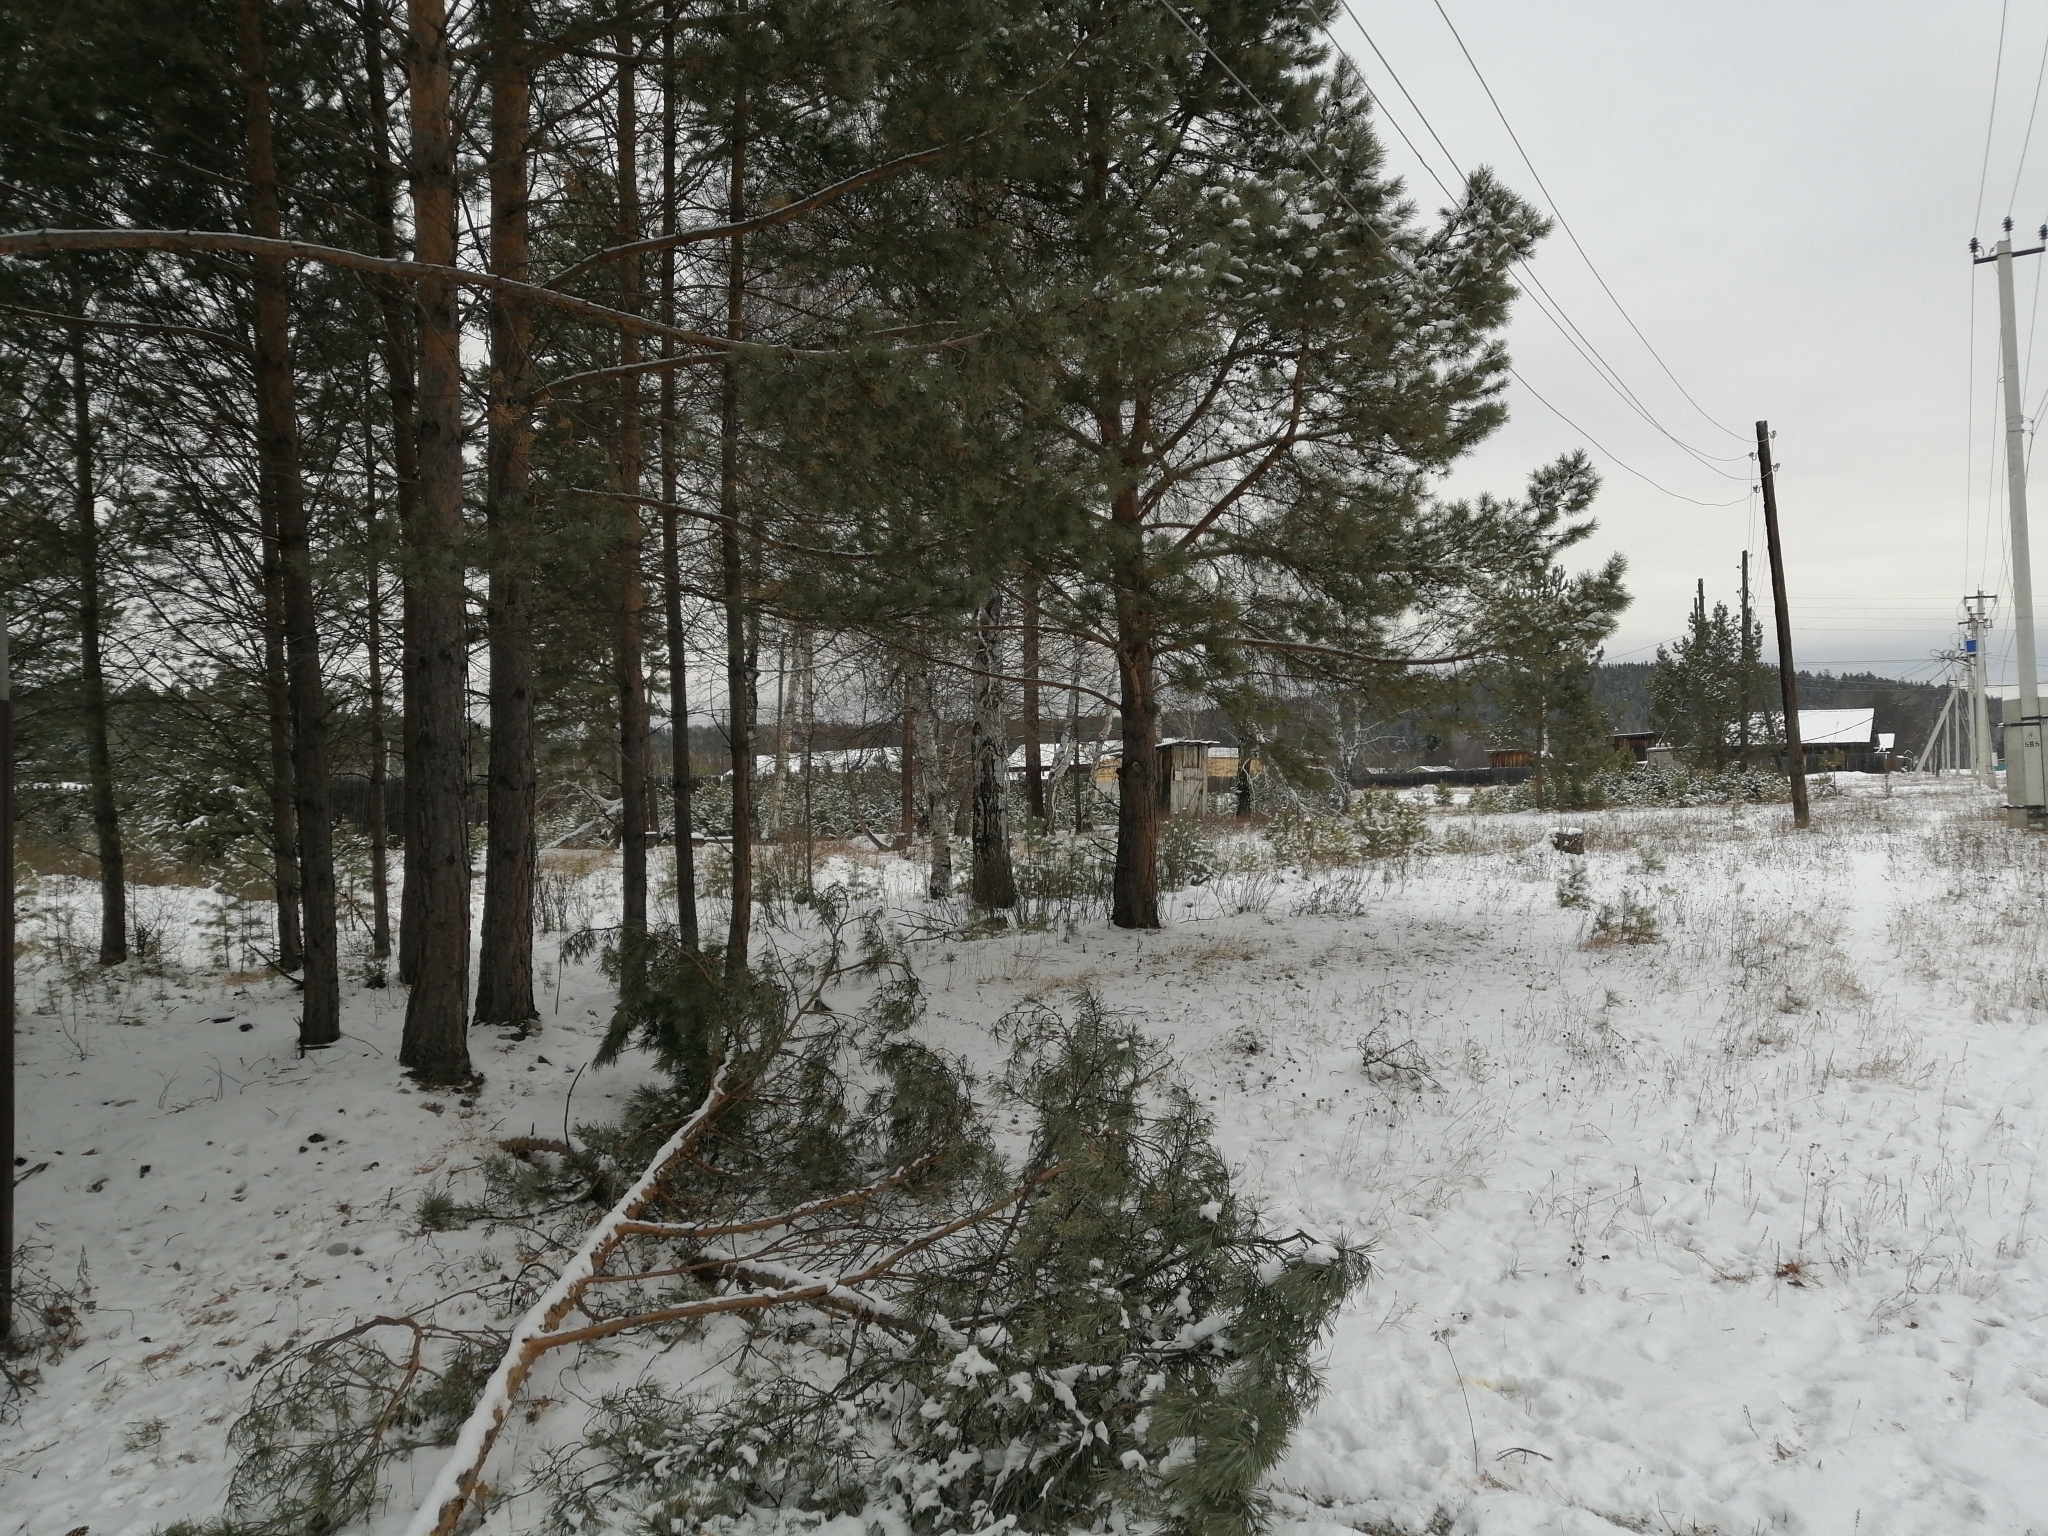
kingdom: Plantae
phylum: Tracheophyta
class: Pinopsida
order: Pinales
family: Pinaceae
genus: Pinus
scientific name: Pinus sylvestris
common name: Scots pine
